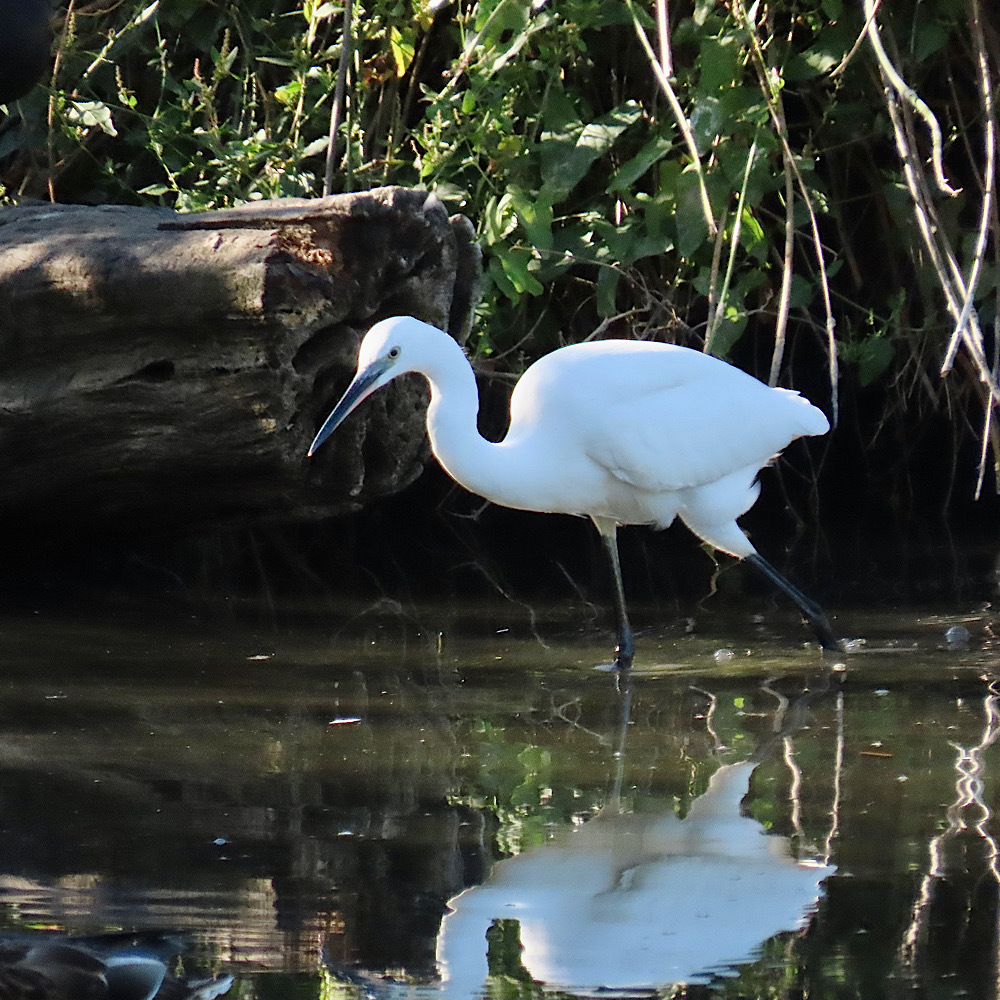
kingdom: Animalia
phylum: Chordata
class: Aves
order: Pelecaniformes
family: Ardeidae
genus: Egretta
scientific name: Egretta garzetta
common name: Little egret
